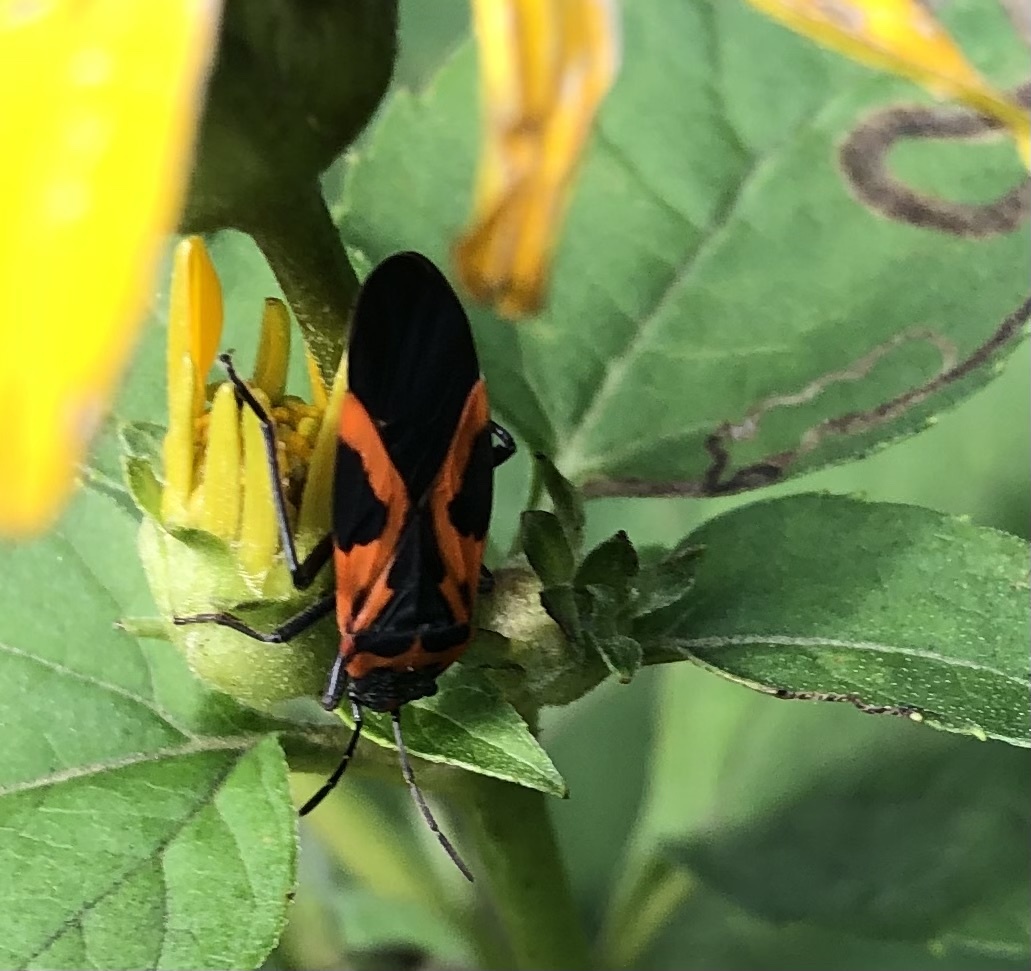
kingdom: Animalia
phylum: Arthropoda
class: Insecta
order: Hemiptera
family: Lygaeidae
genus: Lygaeus
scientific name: Lygaeus turcicus
